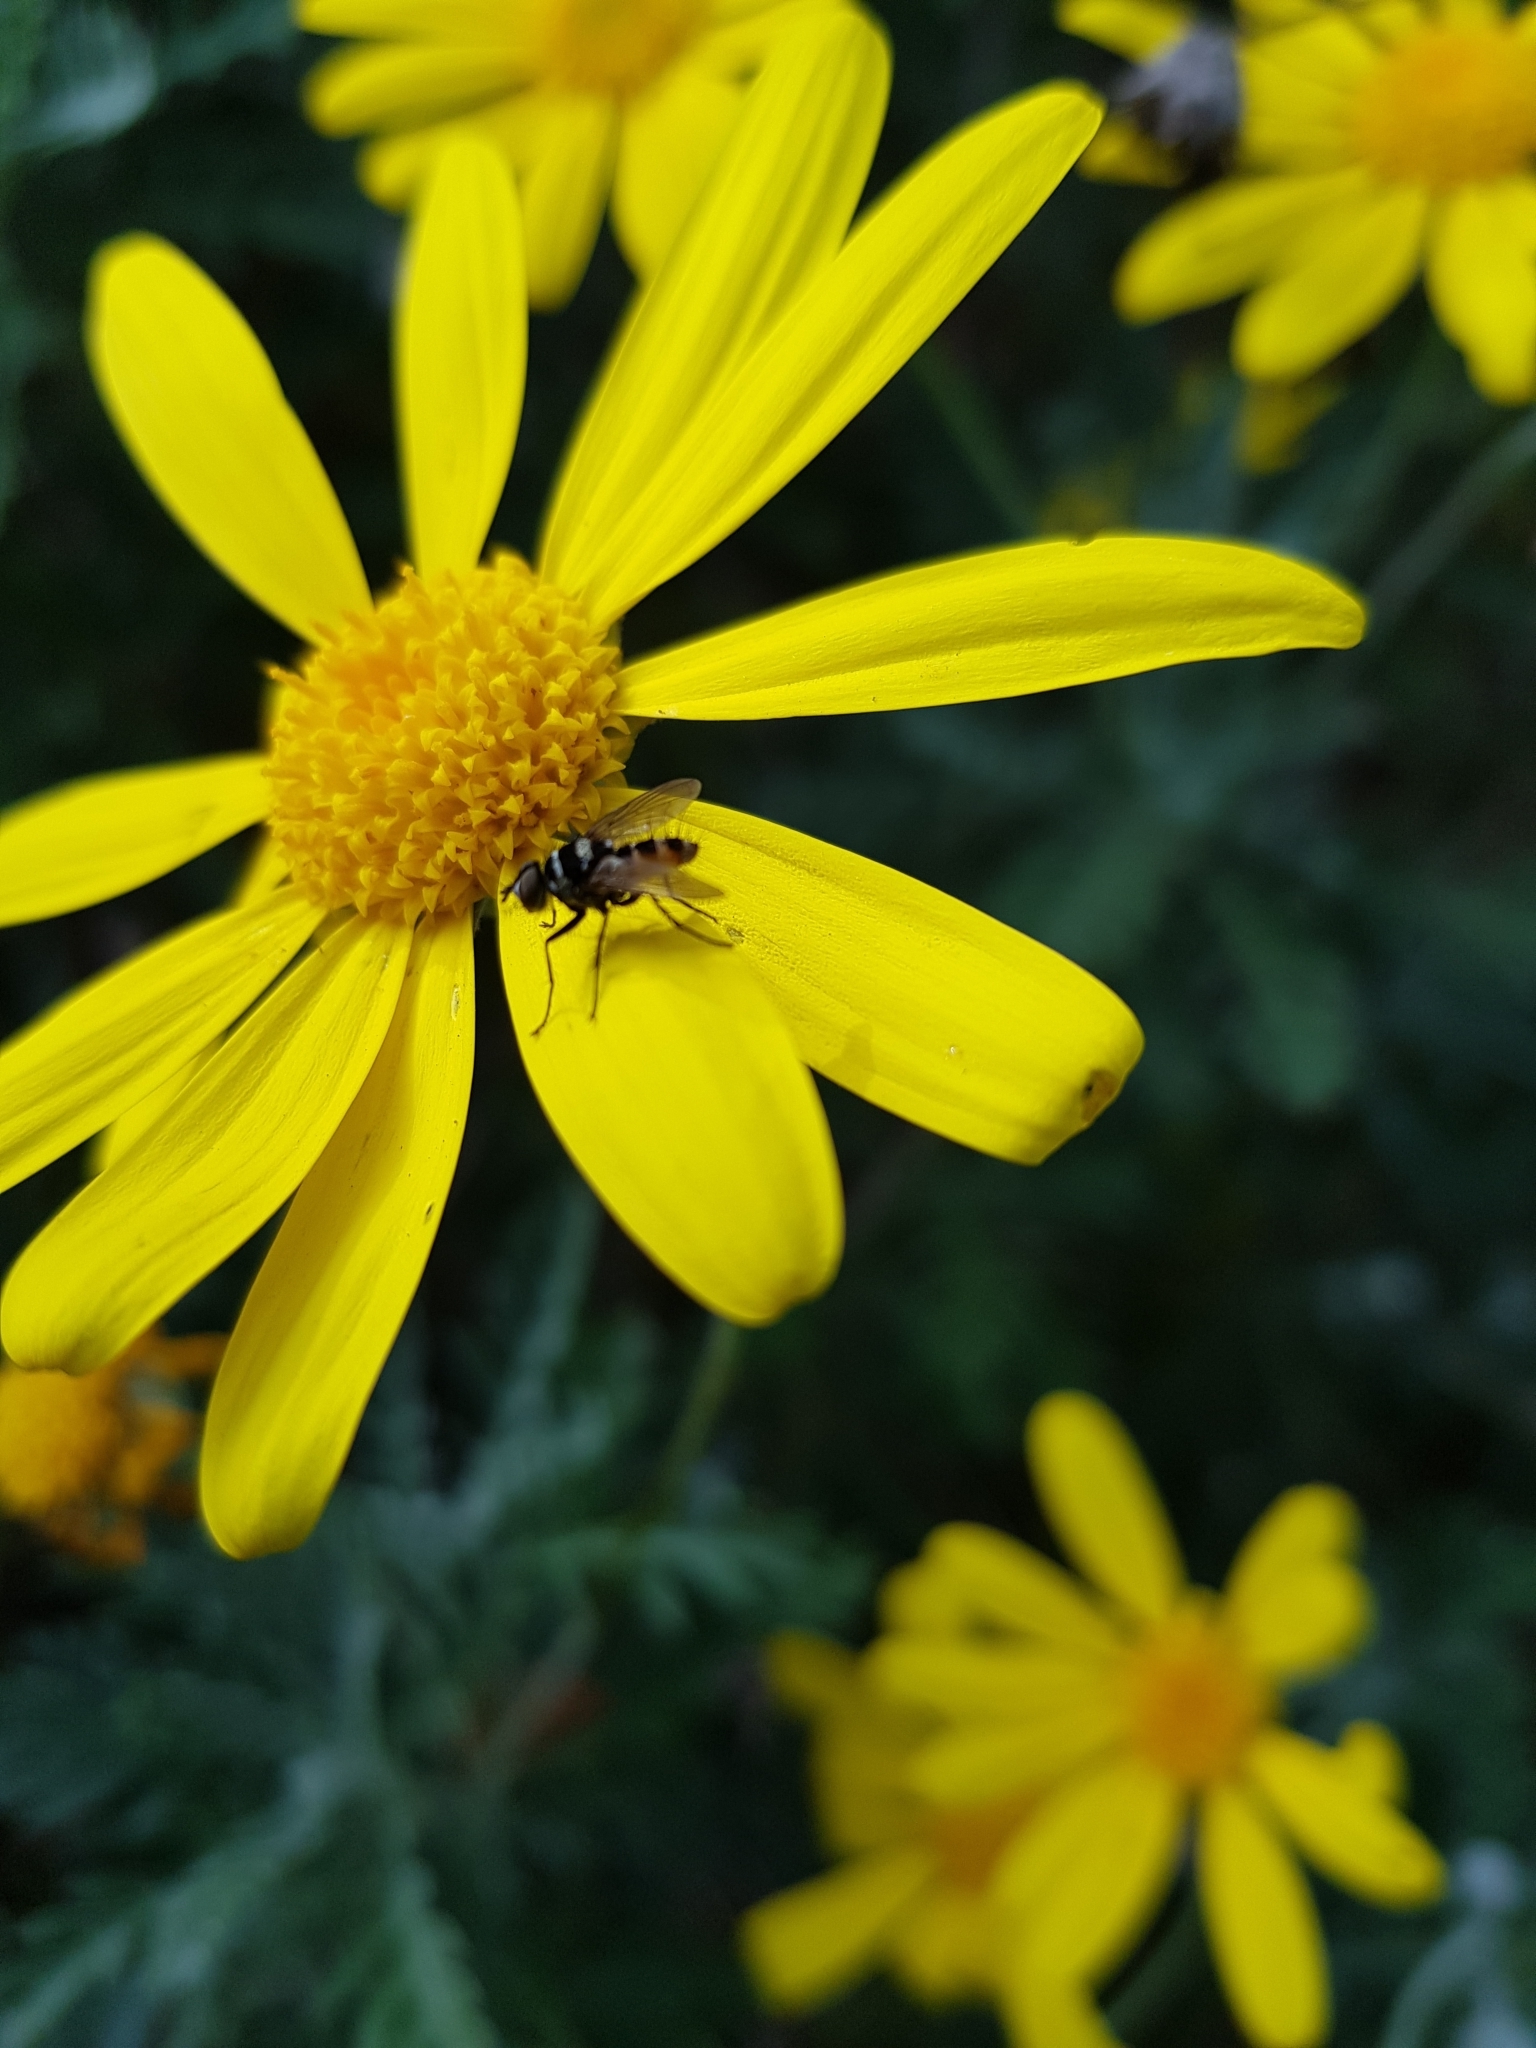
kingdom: Animalia
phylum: Arthropoda
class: Insecta
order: Diptera
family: Tachinidae
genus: Trigonospila
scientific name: Trigonospila brevifacies
